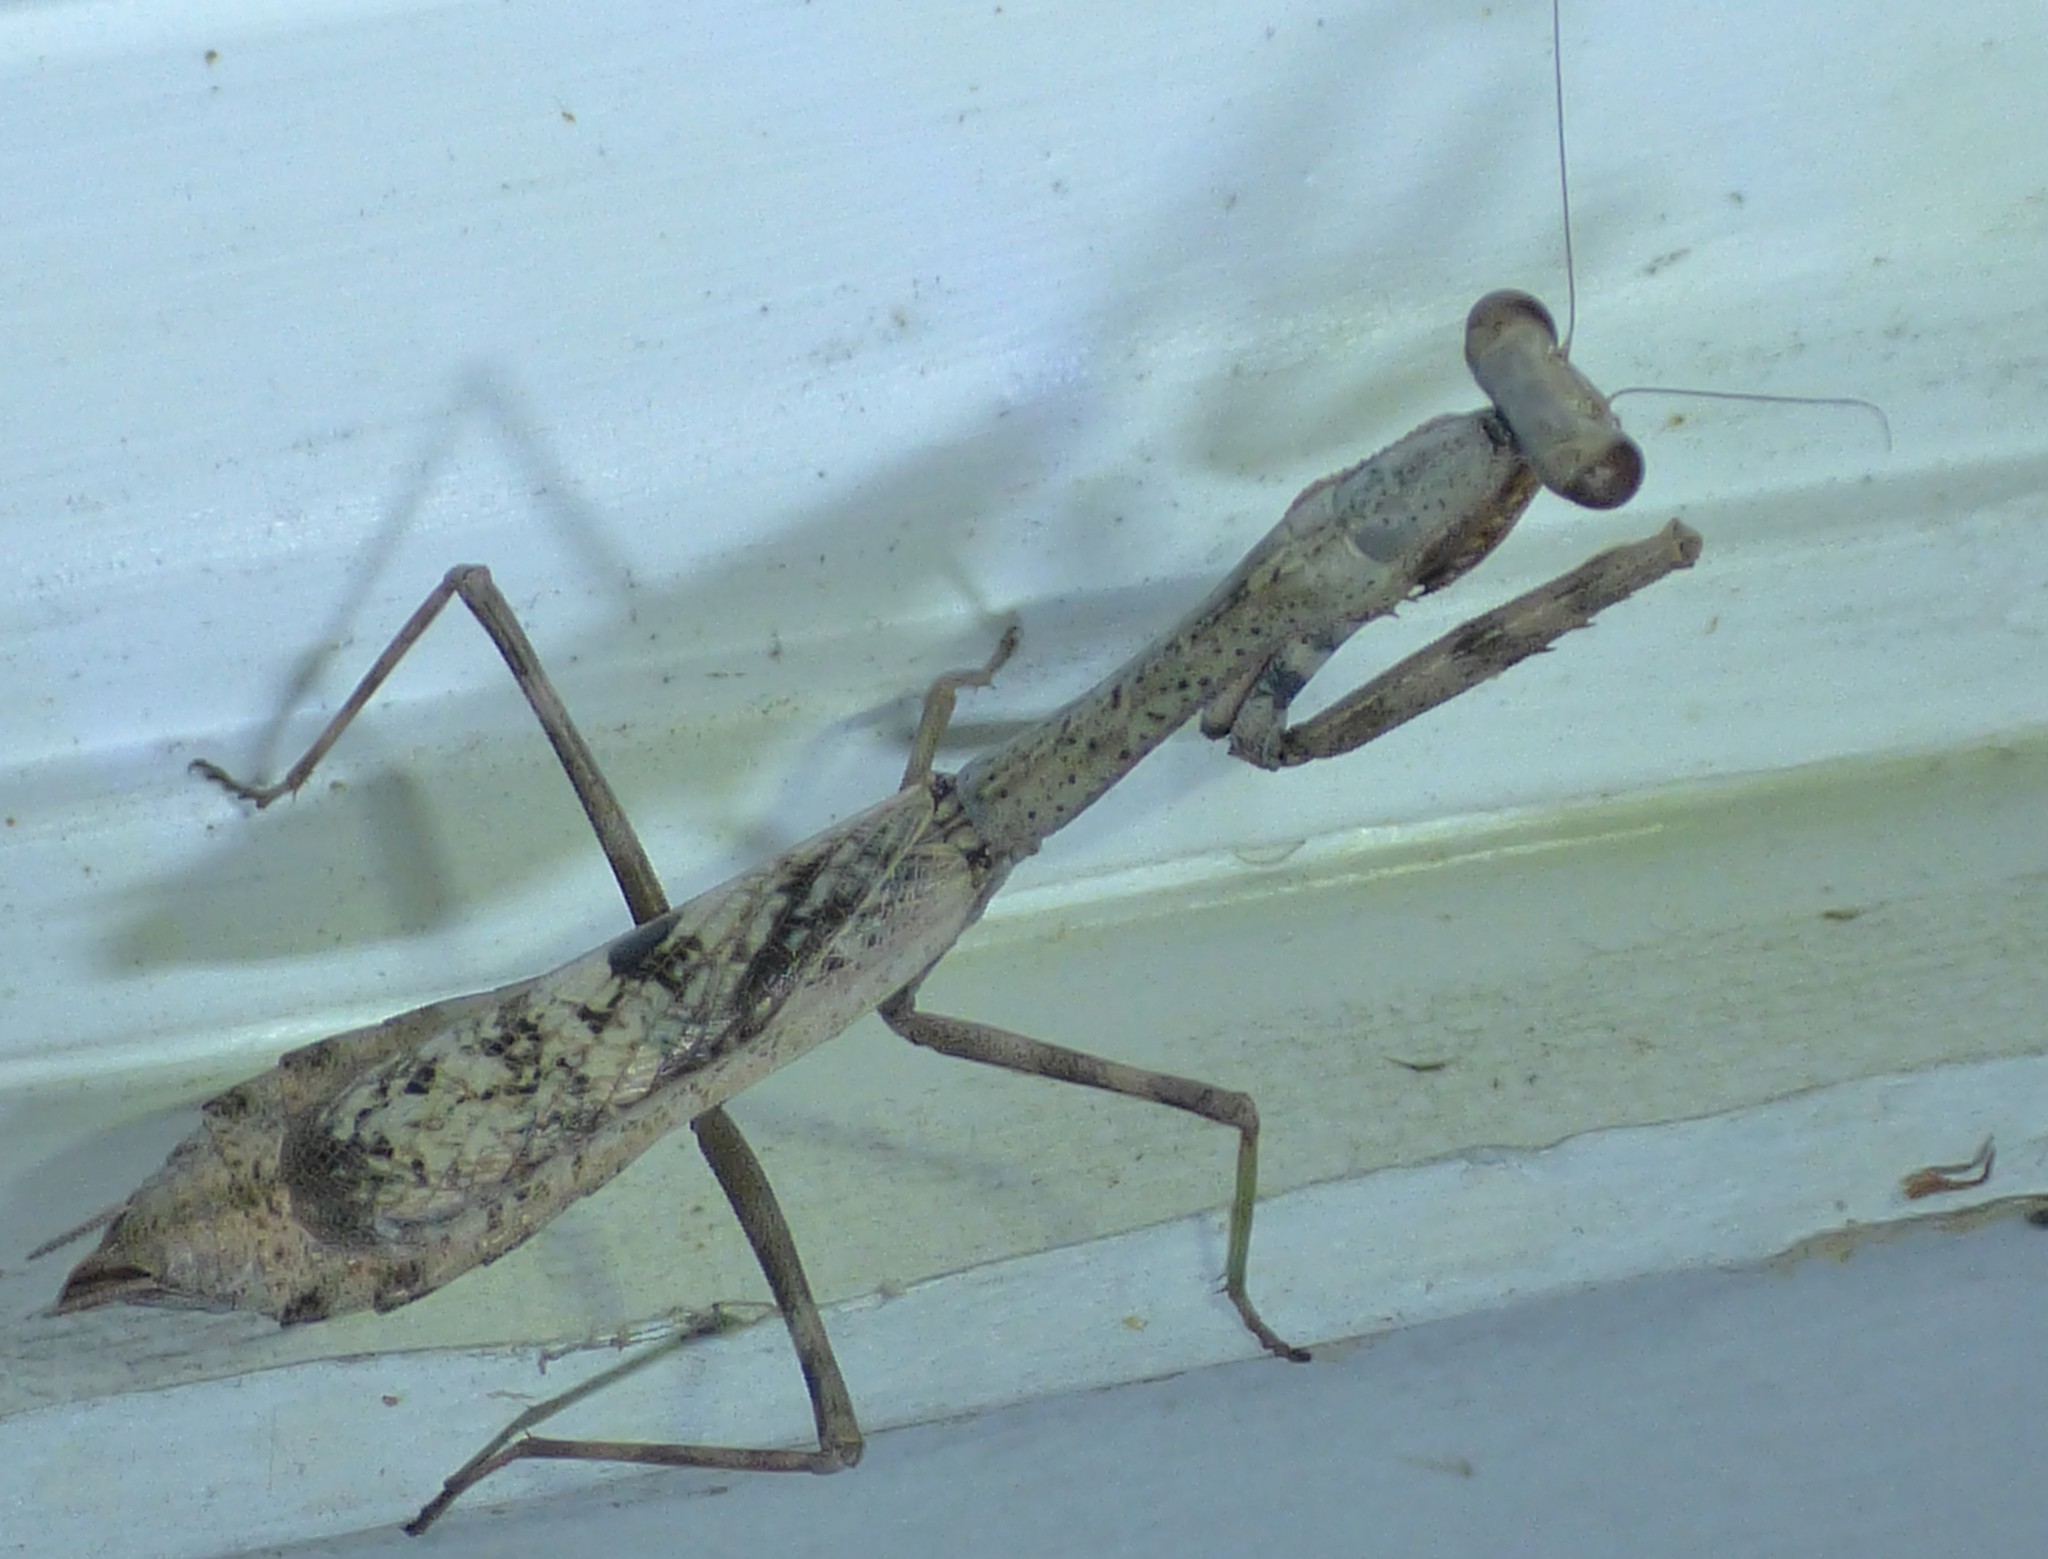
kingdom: Animalia
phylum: Arthropoda
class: Insecta
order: Mantodea
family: Mantidae
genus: Stagmomantis
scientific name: Stagmomantis carolina
